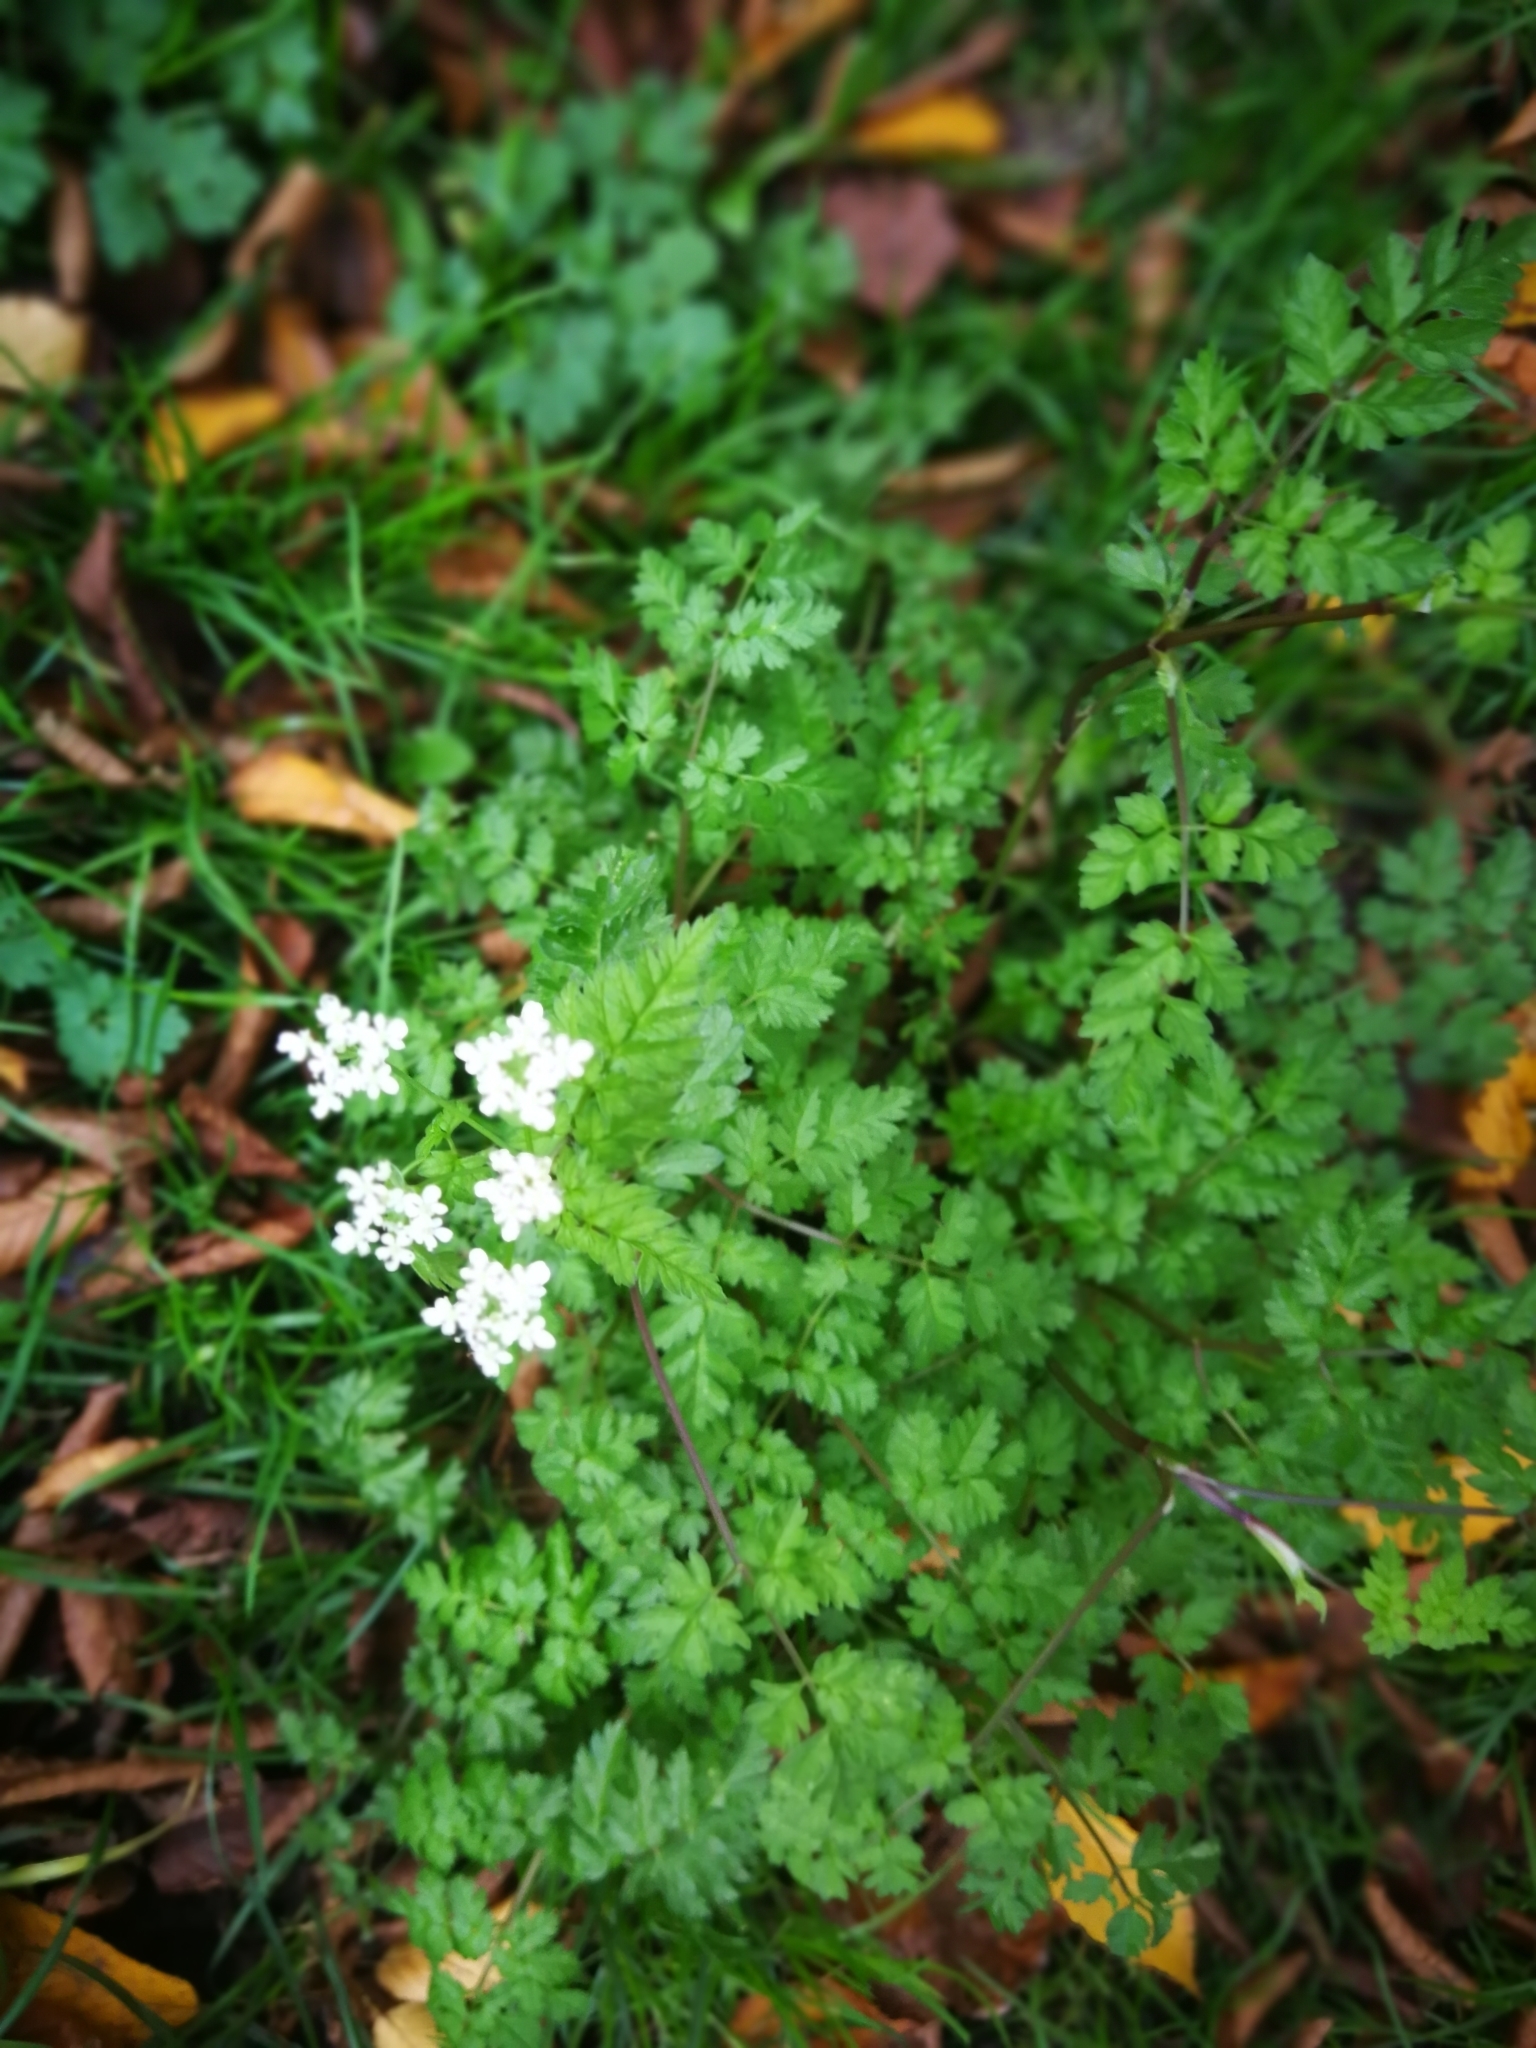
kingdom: Plantae
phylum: Tracheophyta
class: Magnoliopsida
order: Apiales
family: Apiaceae
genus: Anthriscus
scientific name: Anthriscus sylvestris
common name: Cow parsley
